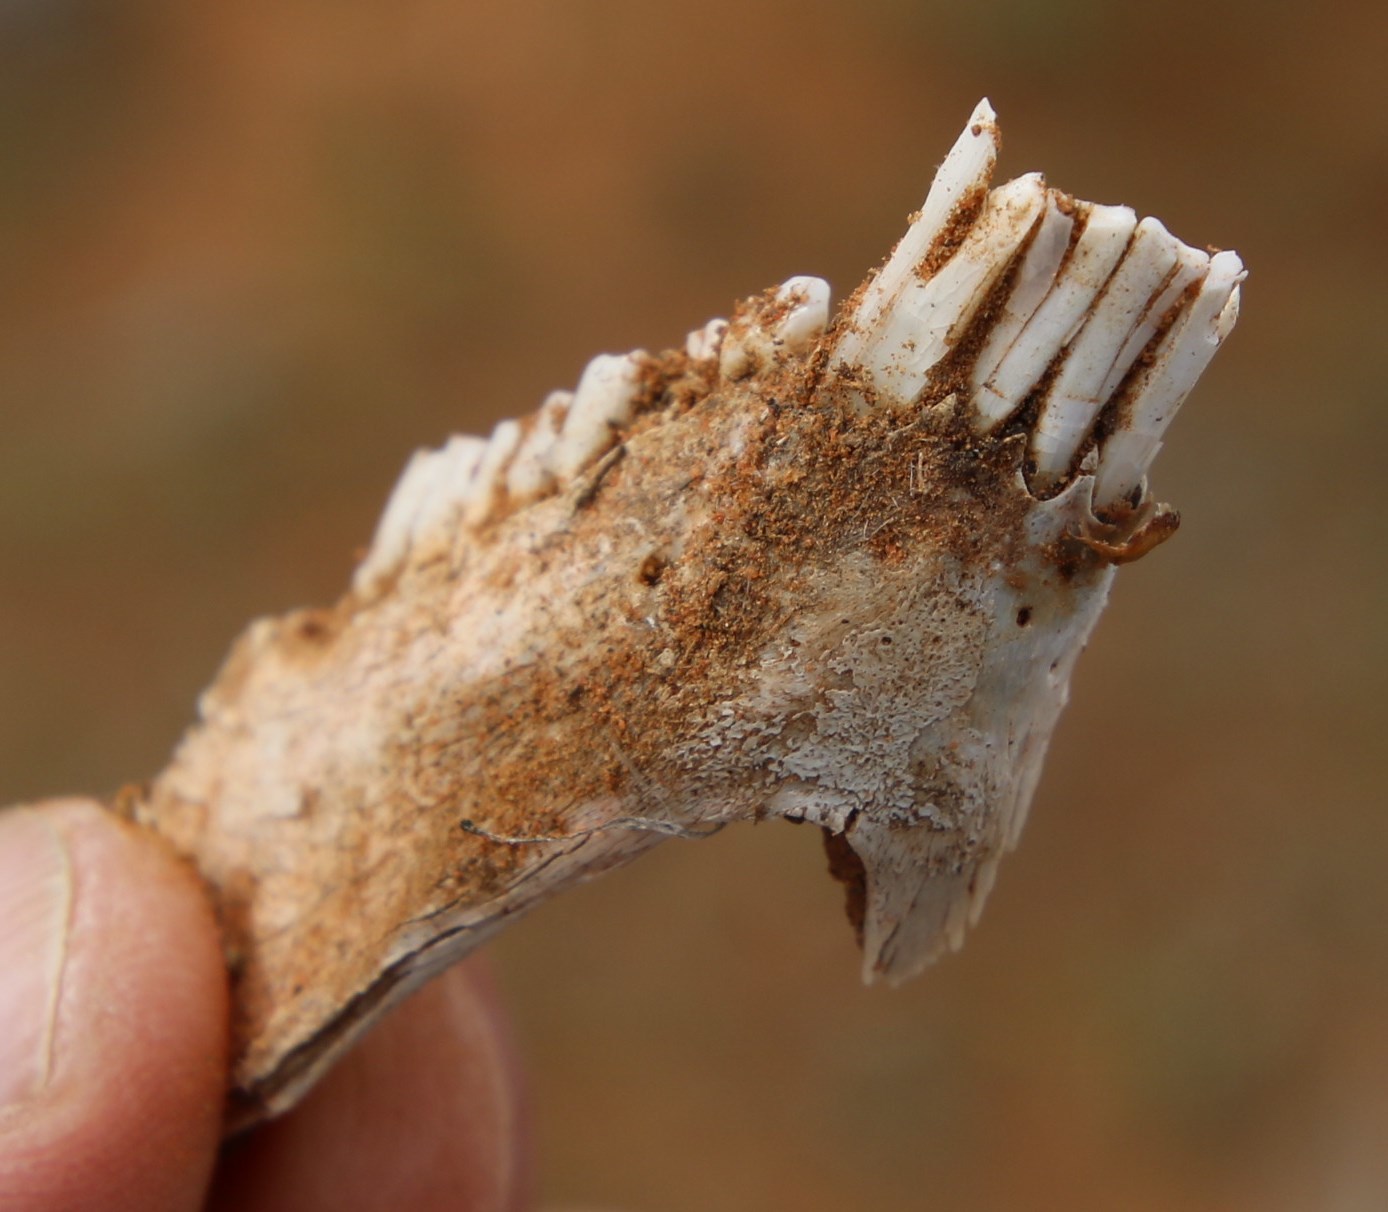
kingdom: Animalia
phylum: Chordata
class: Mammalia
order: Hyracoidea
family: Procaviidae
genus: Procavia
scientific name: Procavia capensis
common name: Rock hyrax
